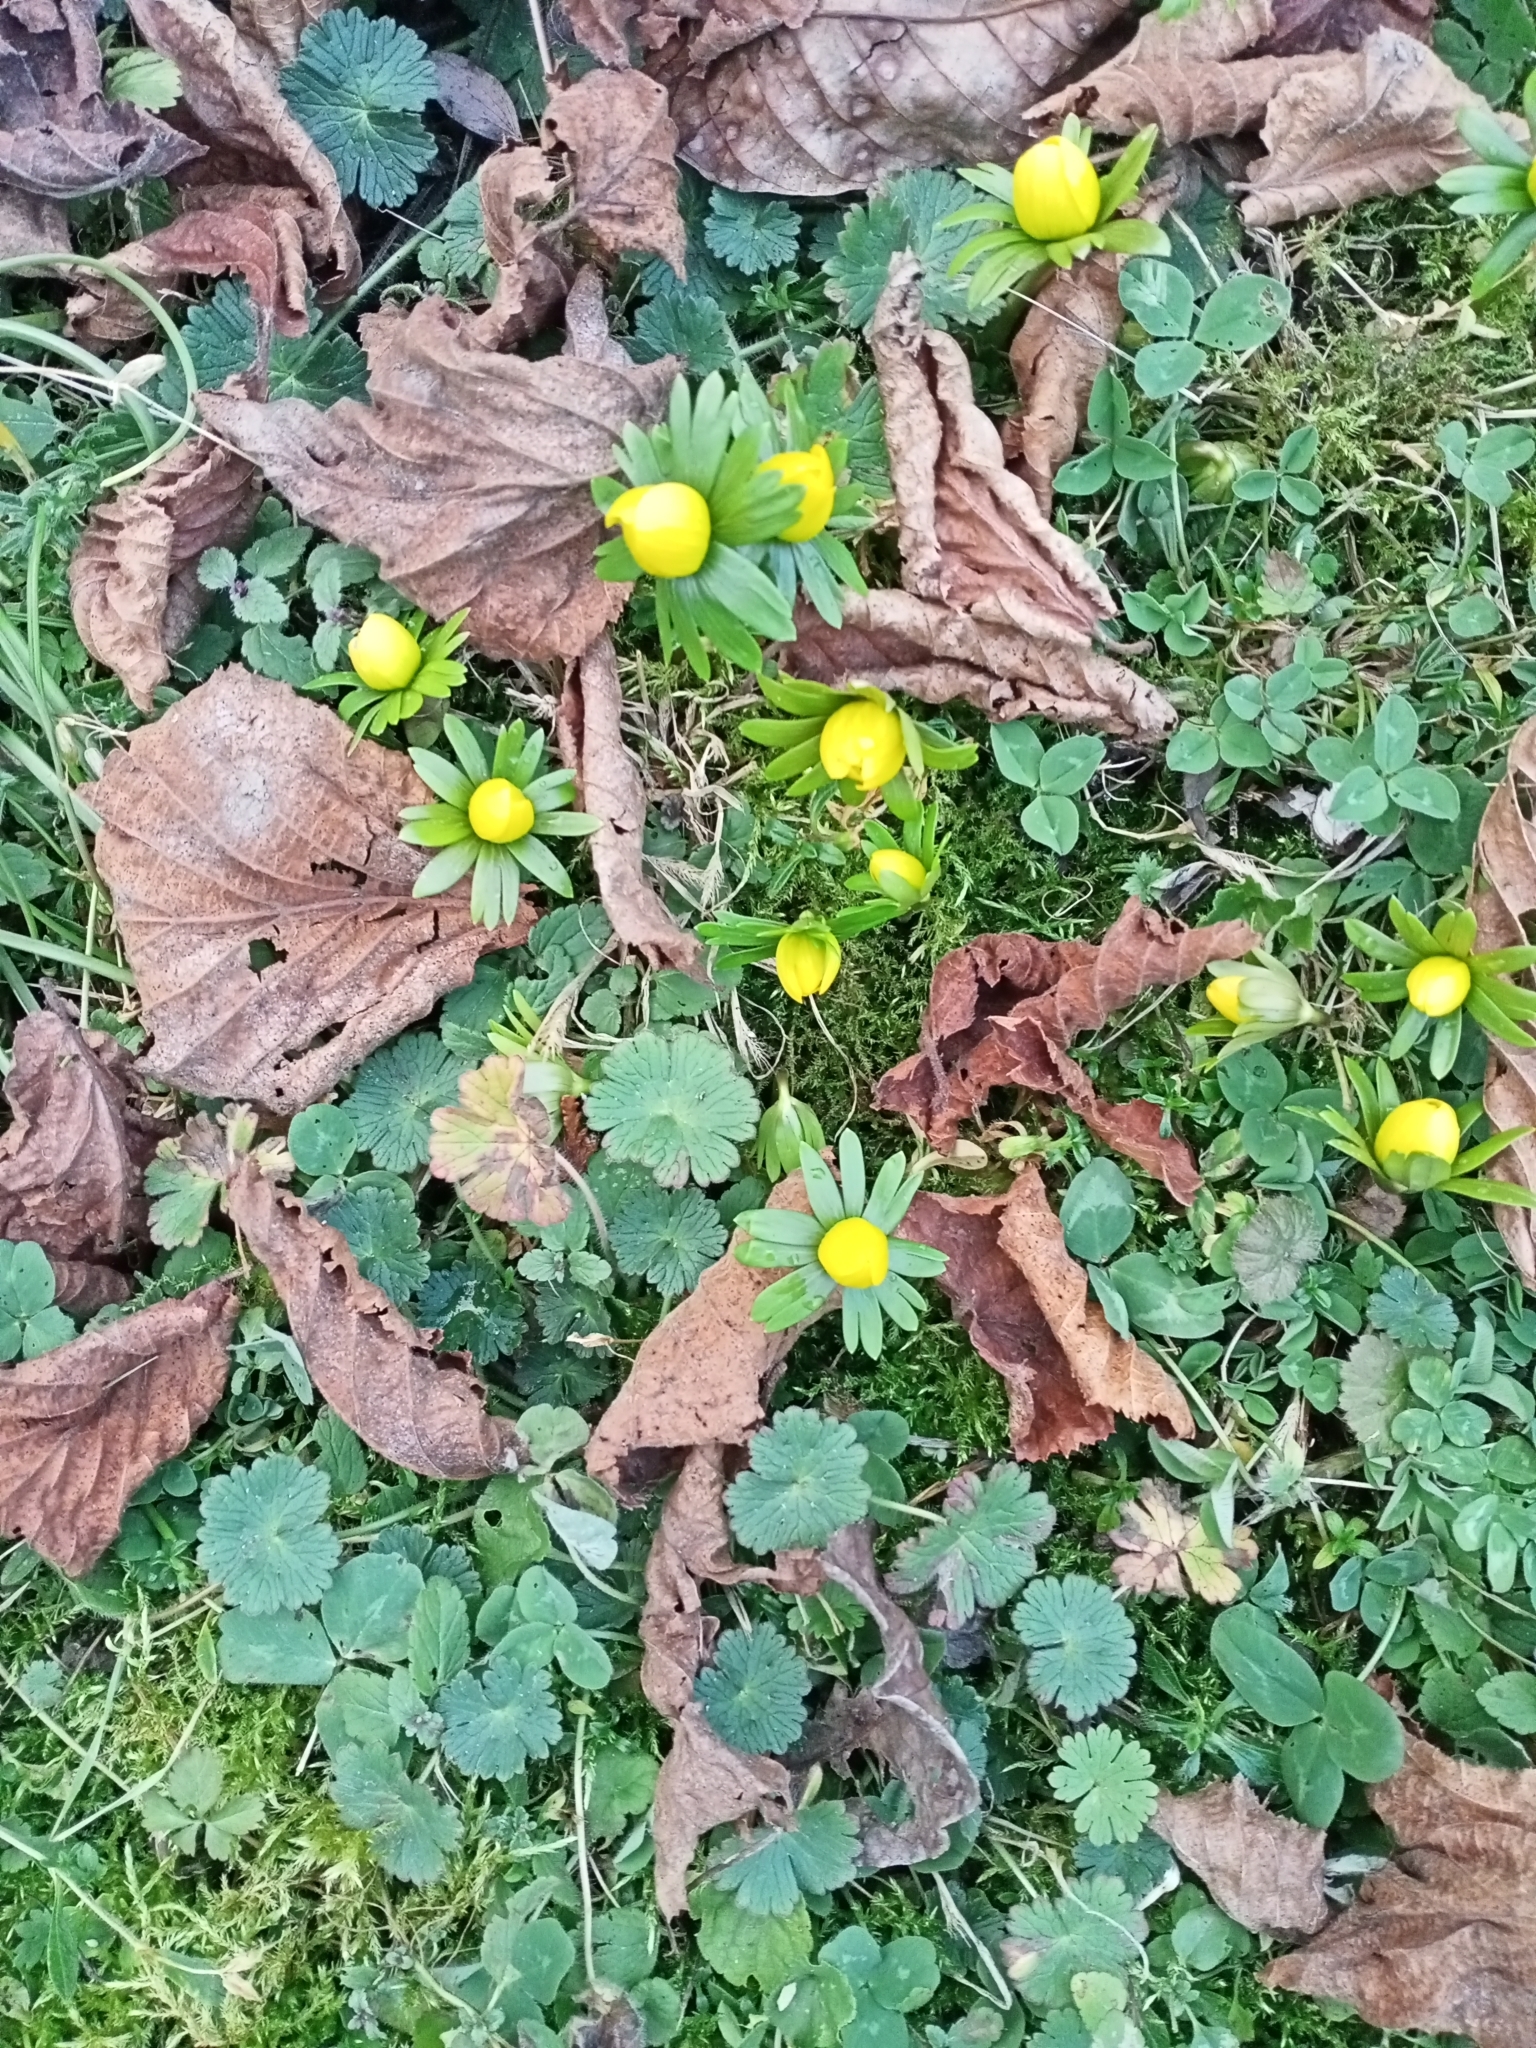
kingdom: Plantae
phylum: Tracheophyta
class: Magnoliopsida
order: Ranunculales
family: Ranunculaceae
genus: Eranthis
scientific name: Eranthis hyemalis
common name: Winter aconite
